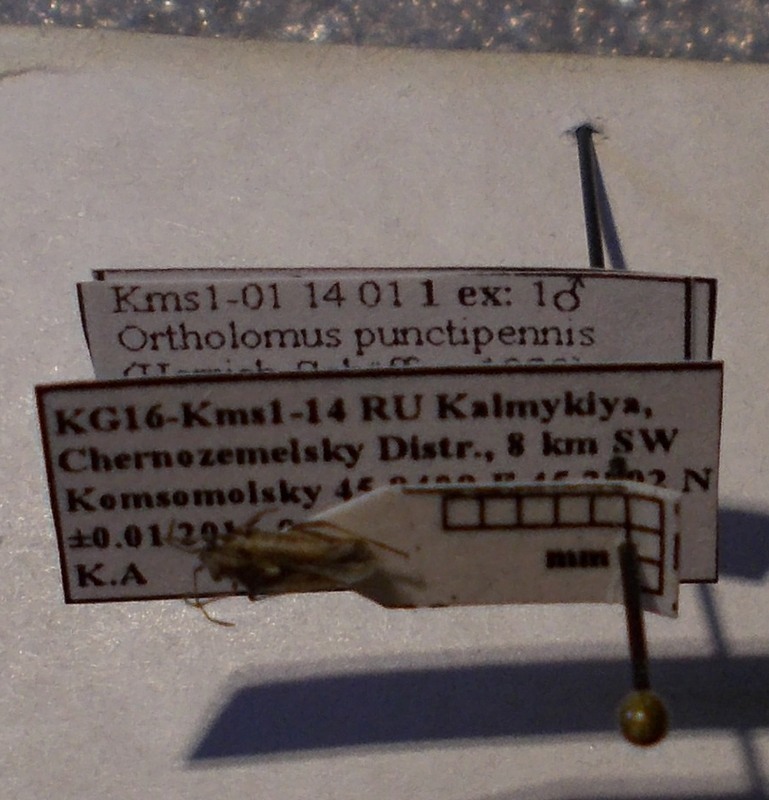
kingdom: Animalia
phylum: Arthropoda
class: Insecta
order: Hemiptera
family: Lygaeidae
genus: Ortholomus
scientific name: Ortholomus punctipennis
